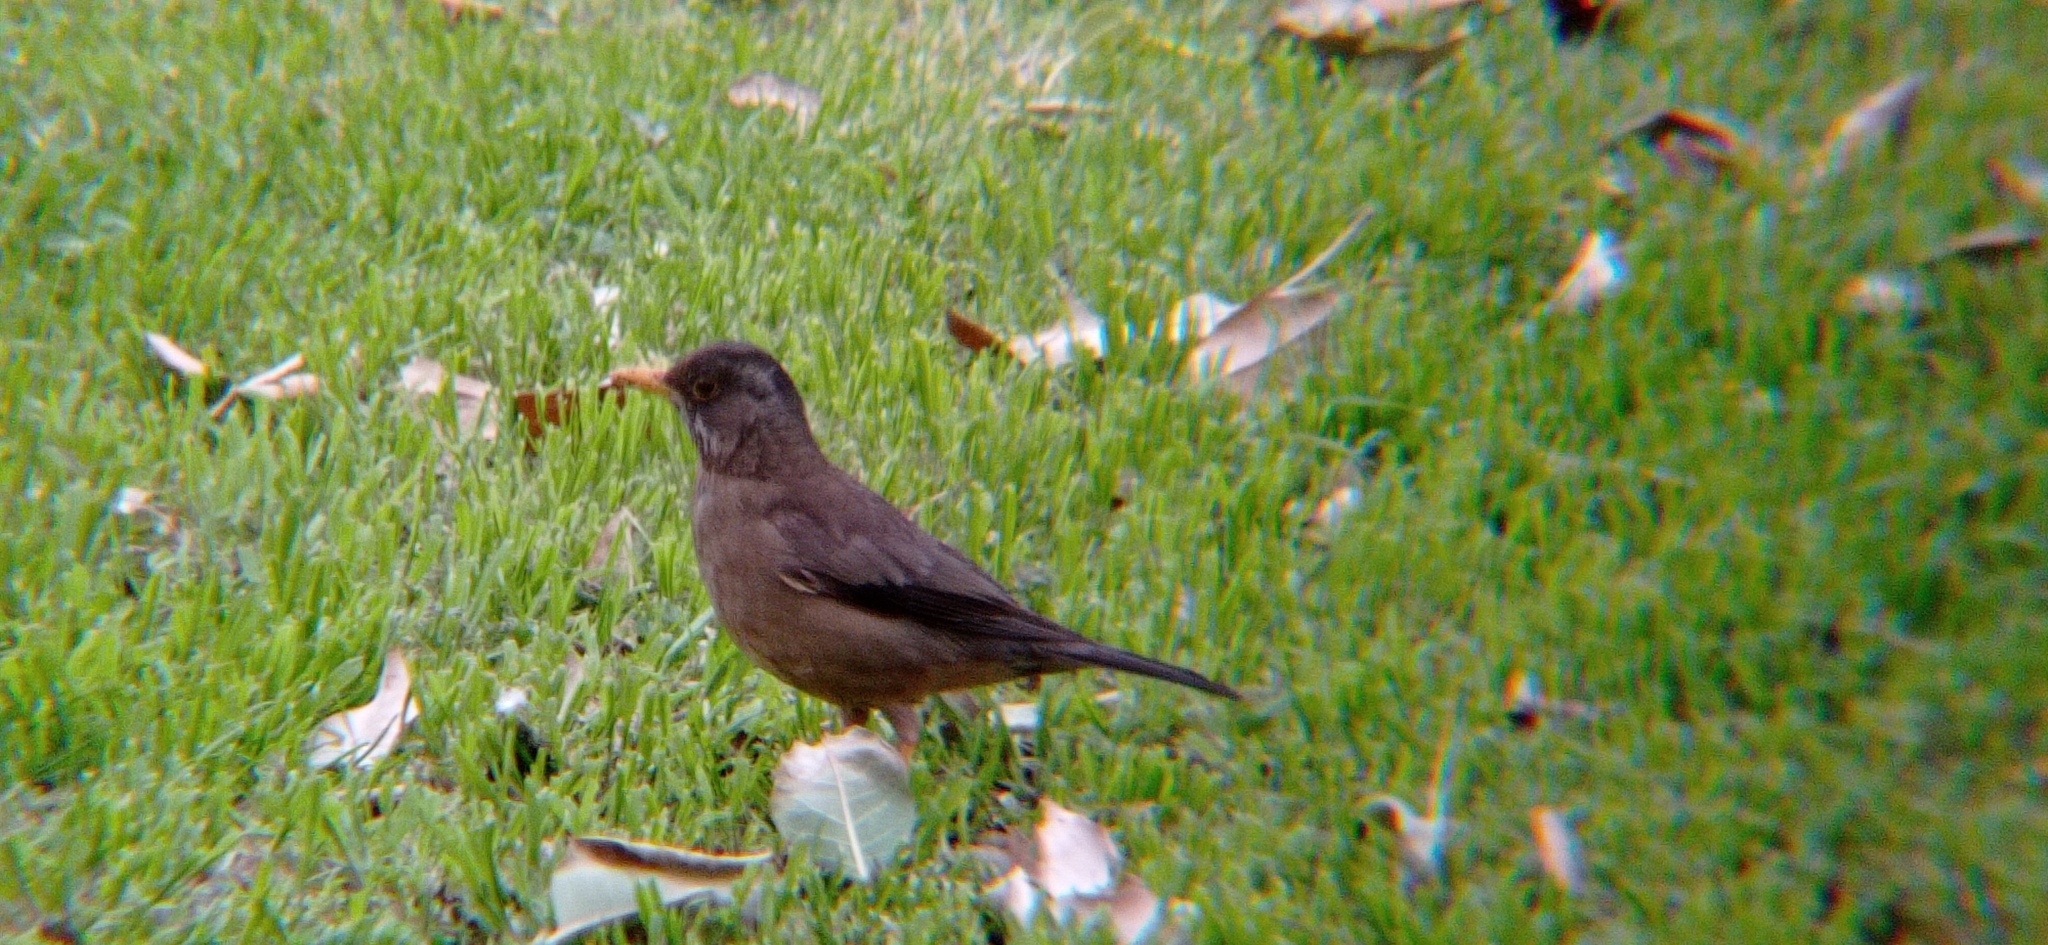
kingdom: Animalia
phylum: Chordata
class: Aves
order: Passeriformes
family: Turdidae
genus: Turdus
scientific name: Turdus falcklandii
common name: Austral thrush
